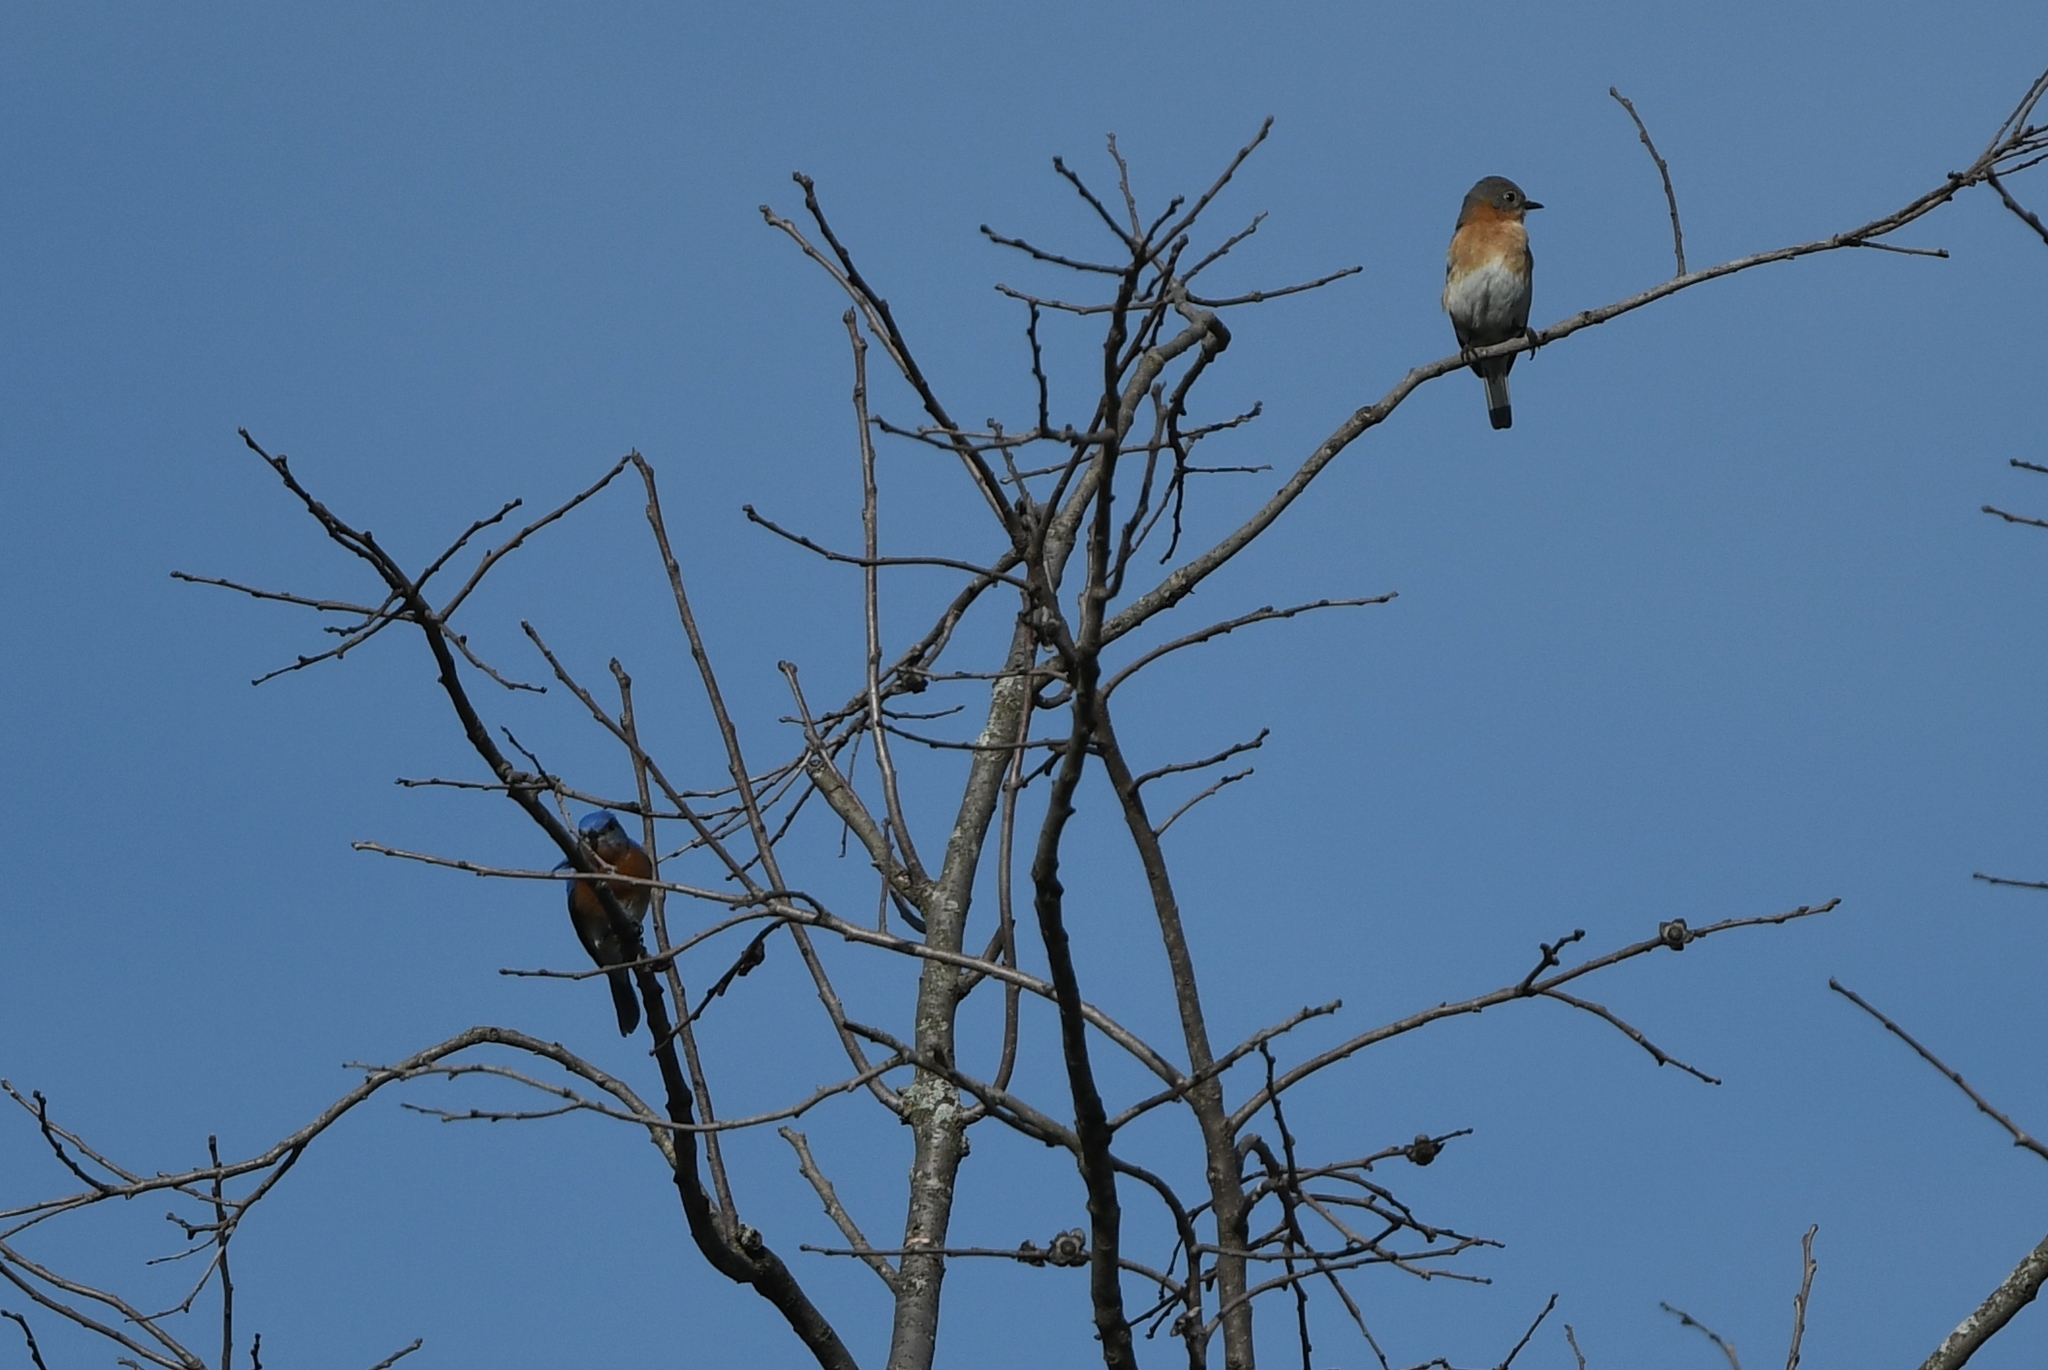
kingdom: Animalia
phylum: Chordata
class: Aves
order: Passeriformes
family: Turdidae
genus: Sialia
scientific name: Sialia sialis
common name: Eastern bluebird
